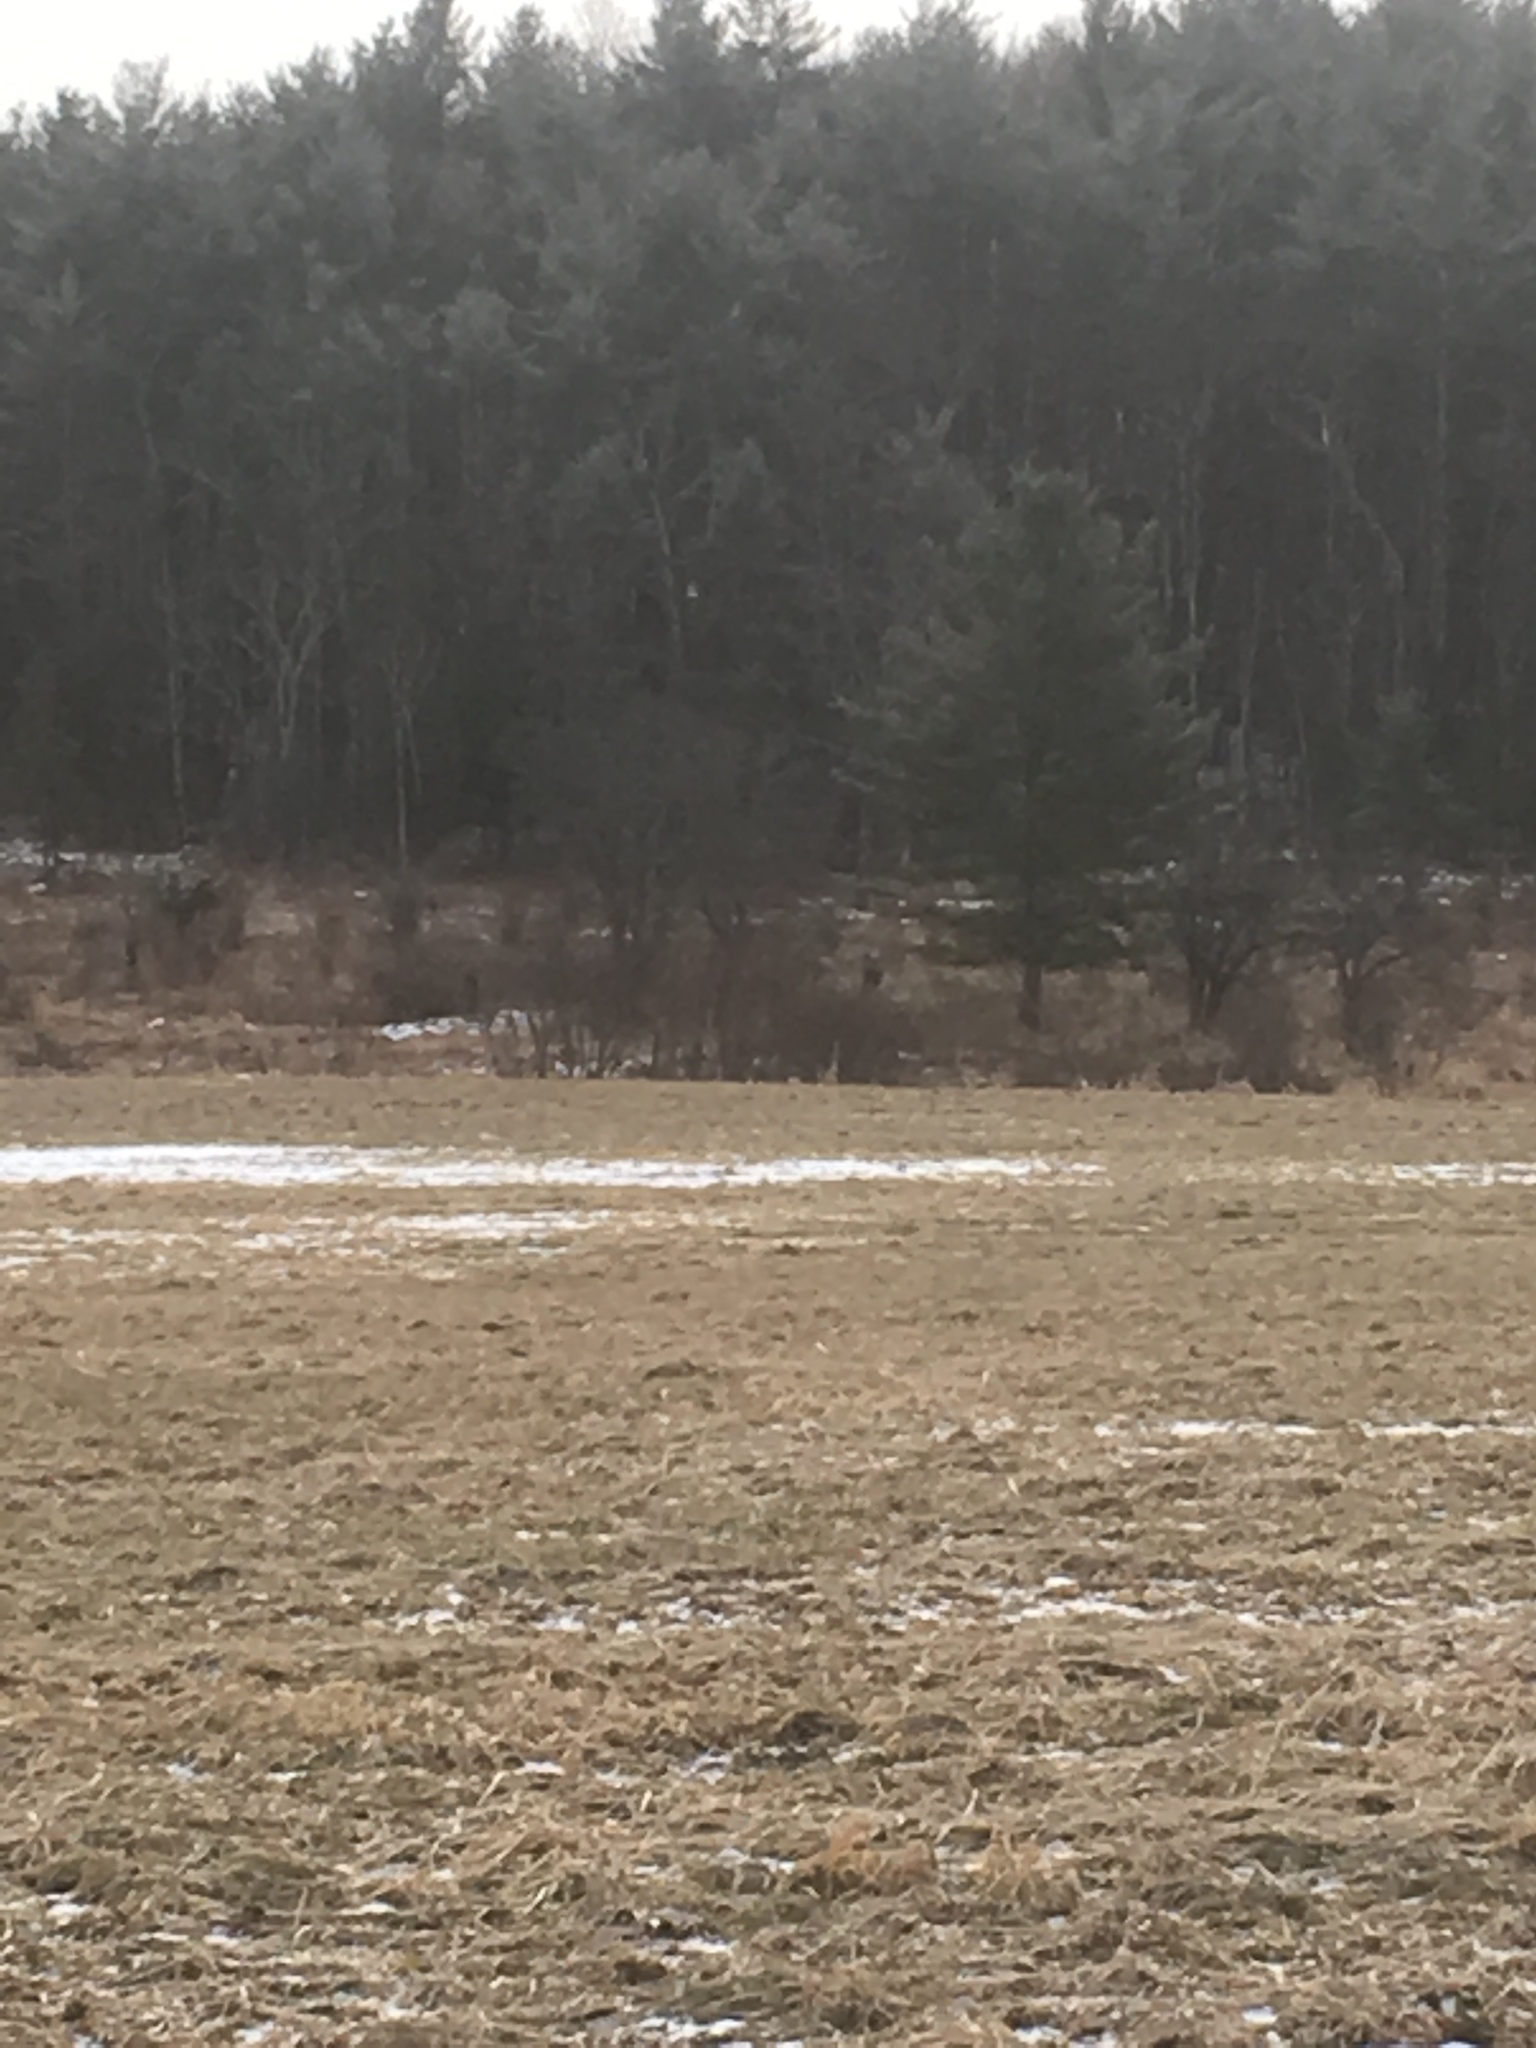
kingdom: Plantae
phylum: Tracheophyta
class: Pinopsida
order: Pinales
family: Pinaceae
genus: Pinus
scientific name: Pinus strobus
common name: Weymouth pine
